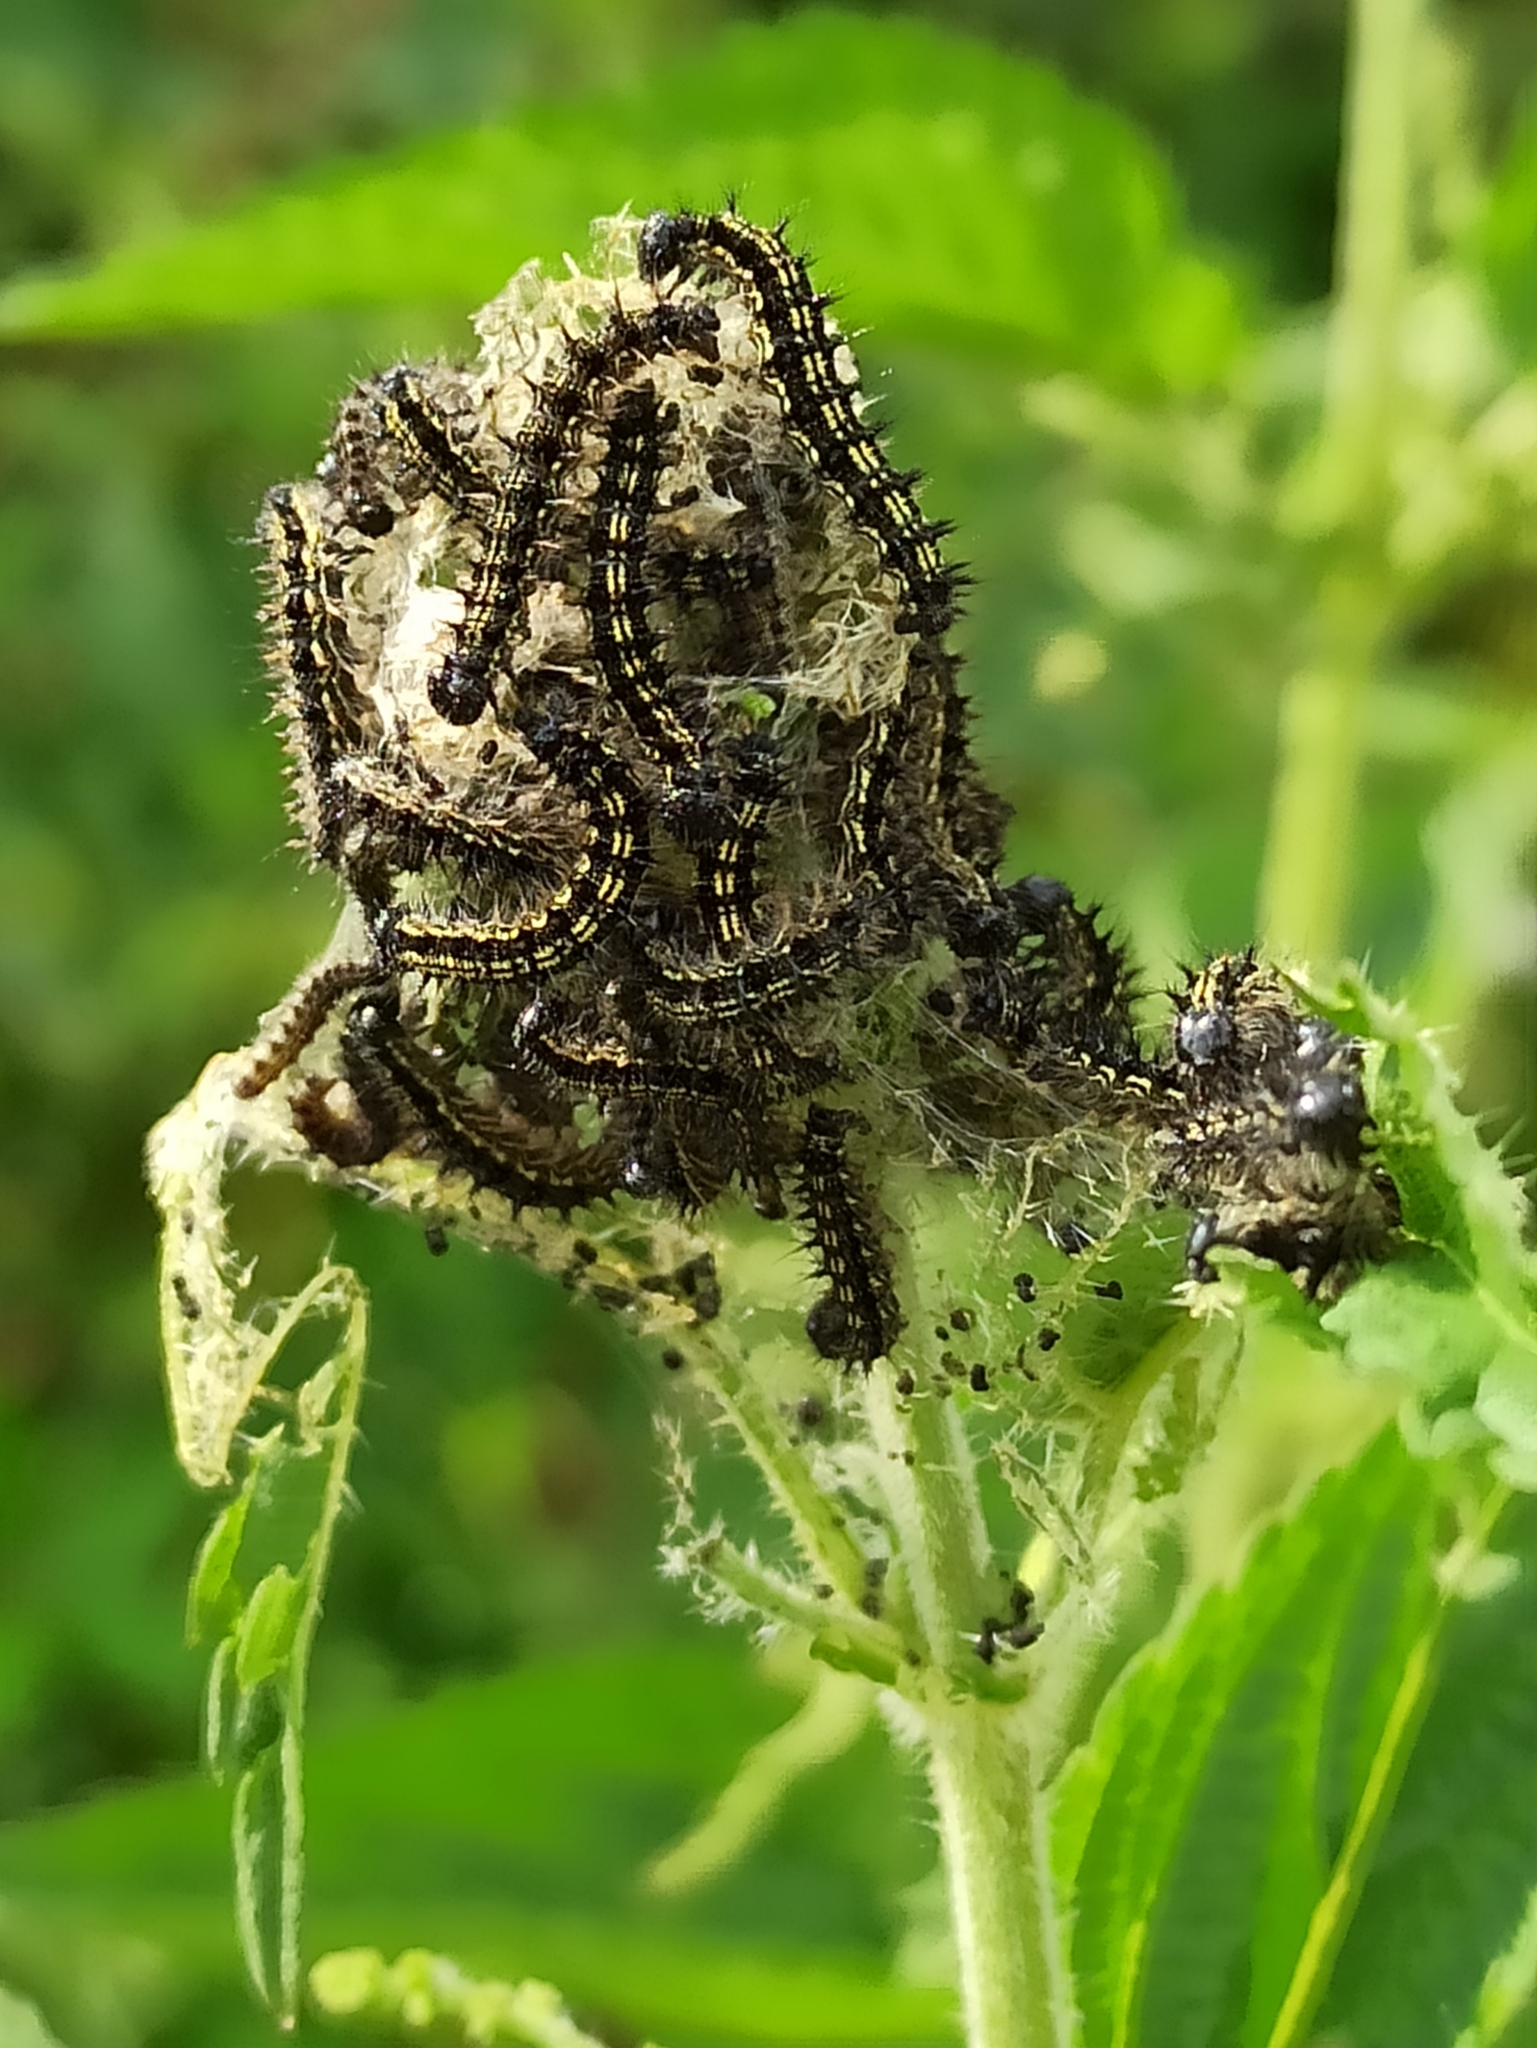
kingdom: Animalia
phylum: Arthropoda
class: Insecta
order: Lepidoptera
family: Nymphalidae
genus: Aglais
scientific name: Aglais urticae
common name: Small tortoiseshell
